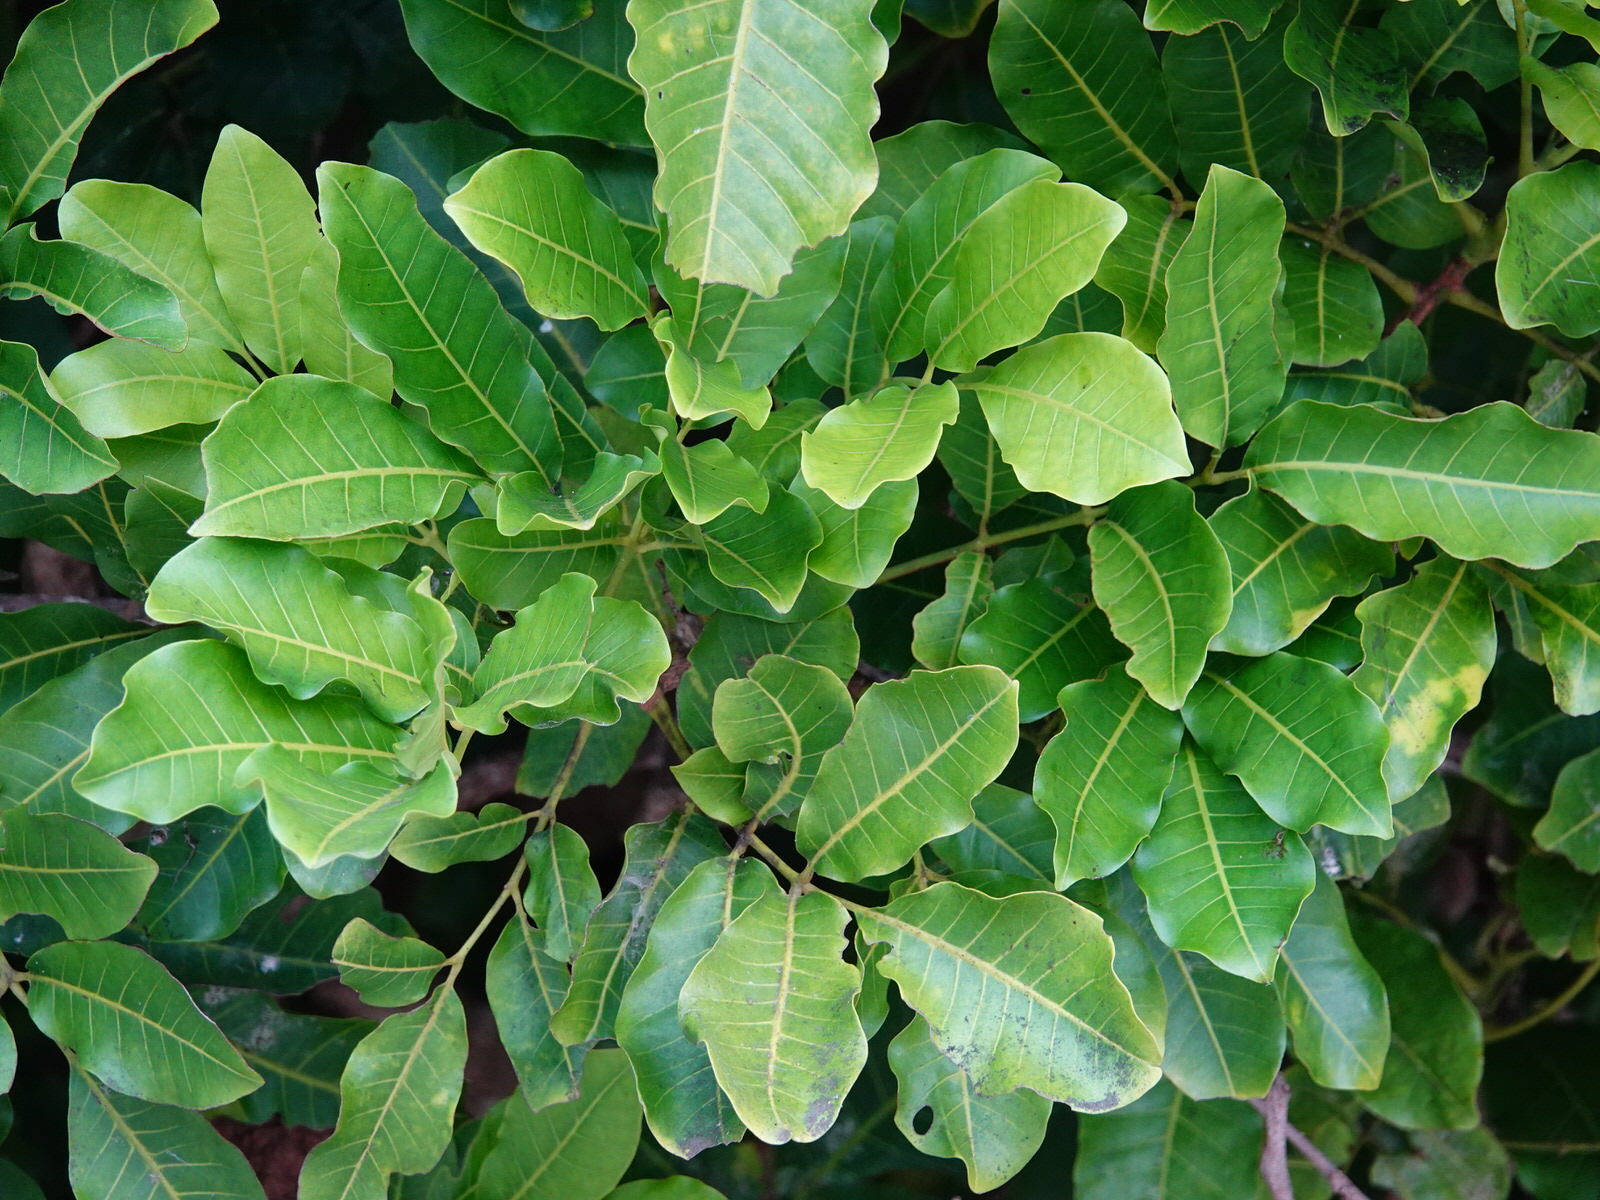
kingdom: Plantae
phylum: Tracheophyta
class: Magnoliopsida
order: Sapindales
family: Meliaceae
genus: Didymocheton
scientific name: Didymocheton spectabilis
